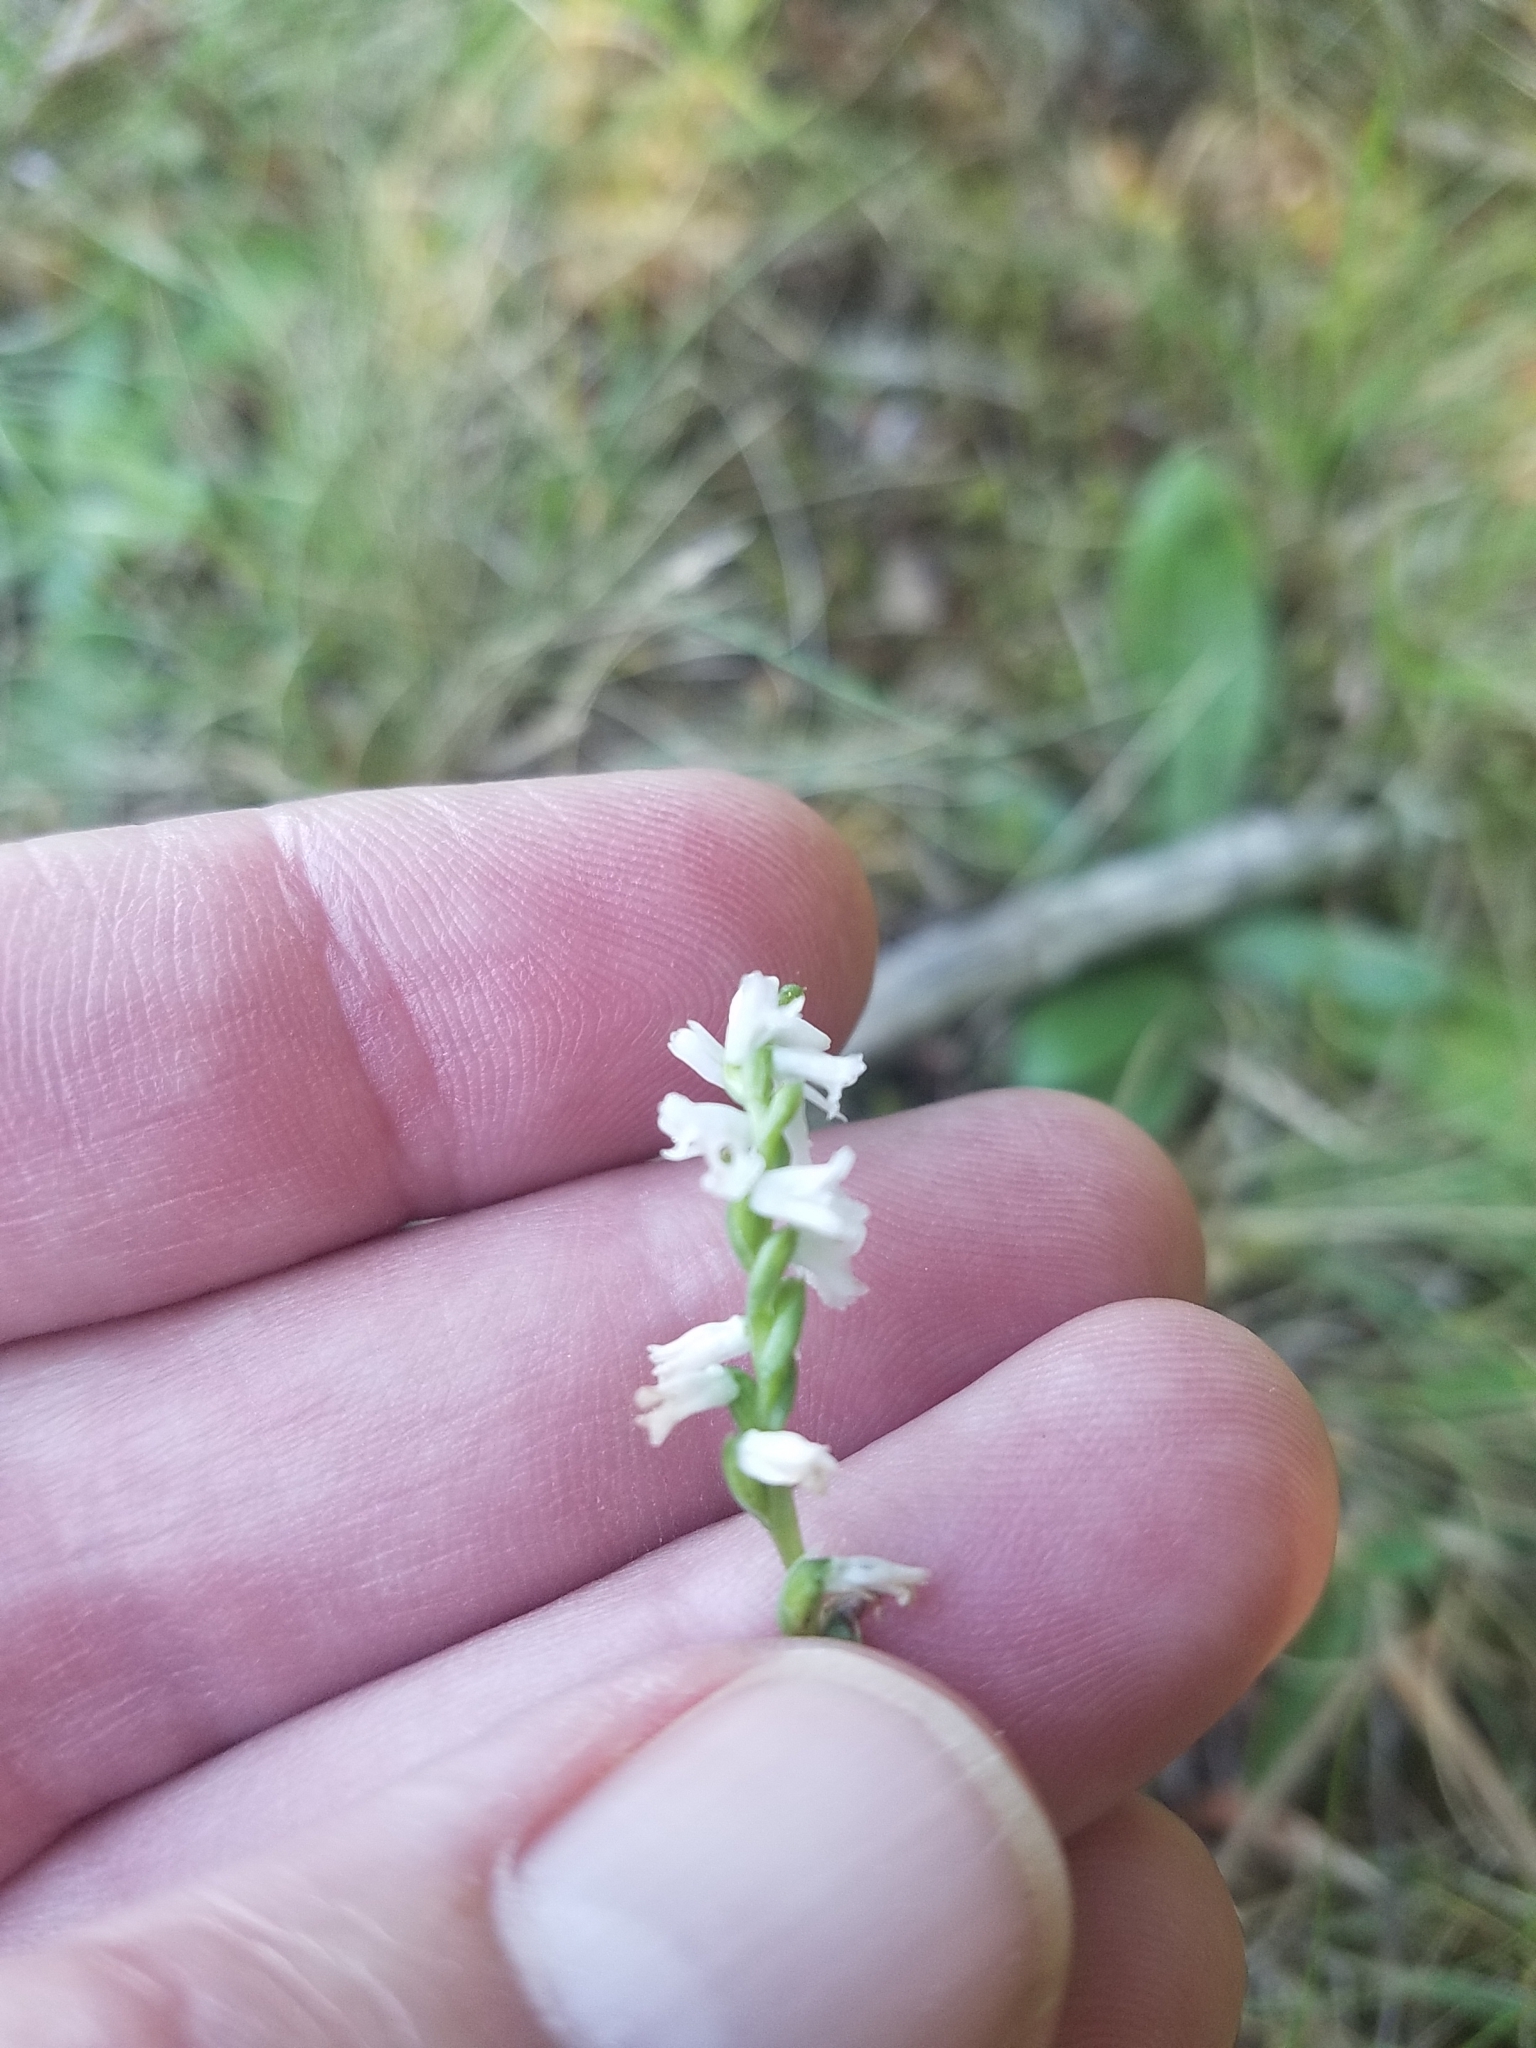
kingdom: Plantae
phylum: Tracheophyta
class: Liliopsida
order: Asparagales
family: Orchidaceae
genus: Spiranthes
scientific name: Spiranthes tuberosa
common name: Little ladies'-tresses
